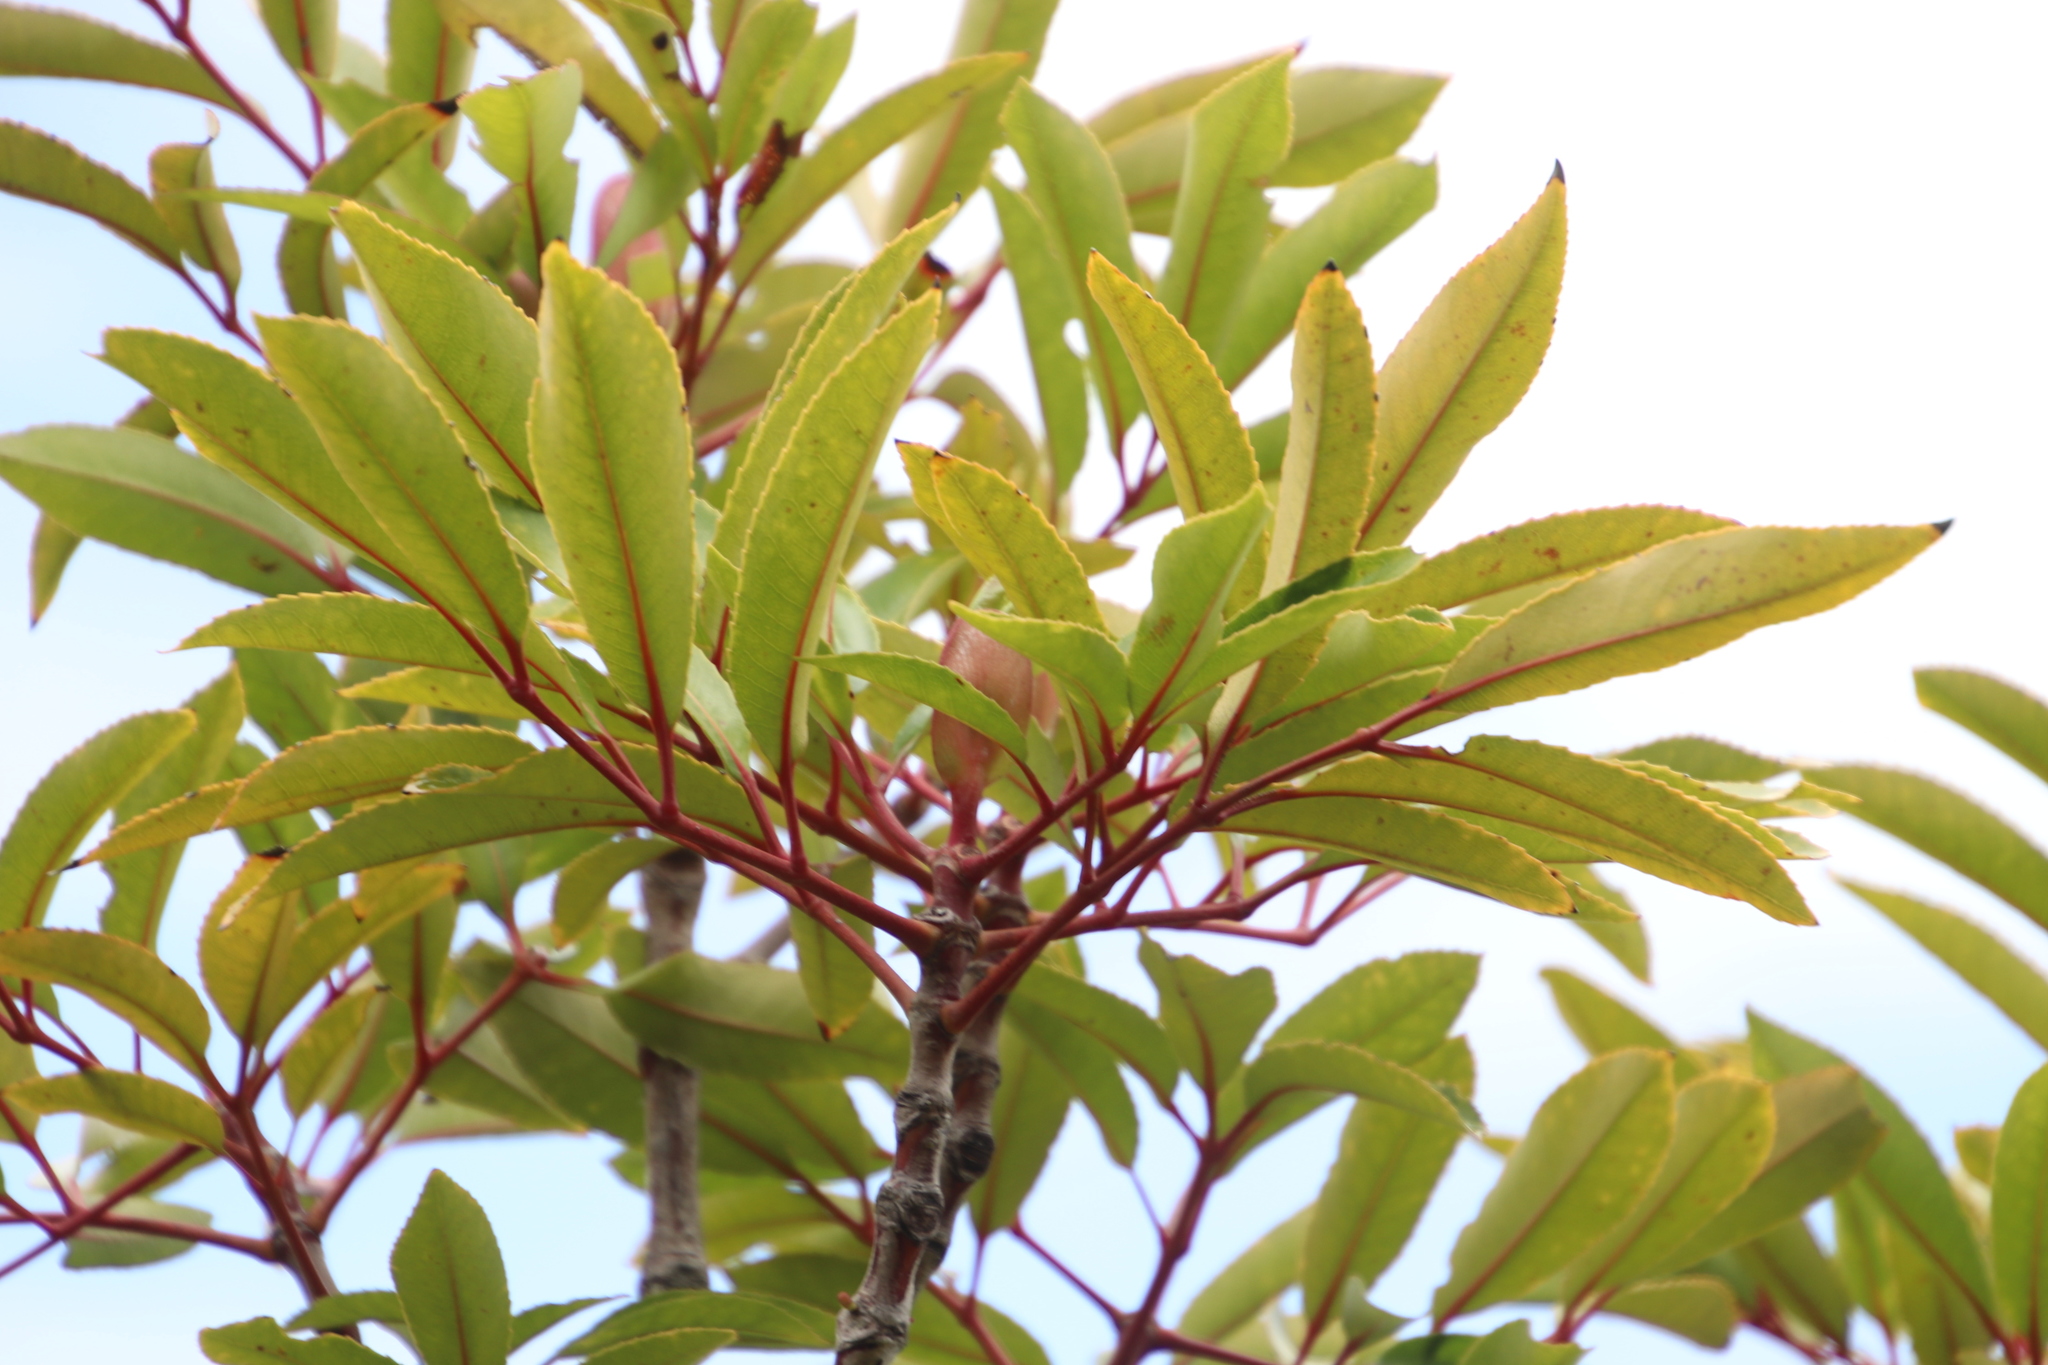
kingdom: Plantae
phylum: Tracheophyta
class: Magnoliopsida
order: Oxalidales
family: Cunoniaceae
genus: Cunonia
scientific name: Cunonia capensis
